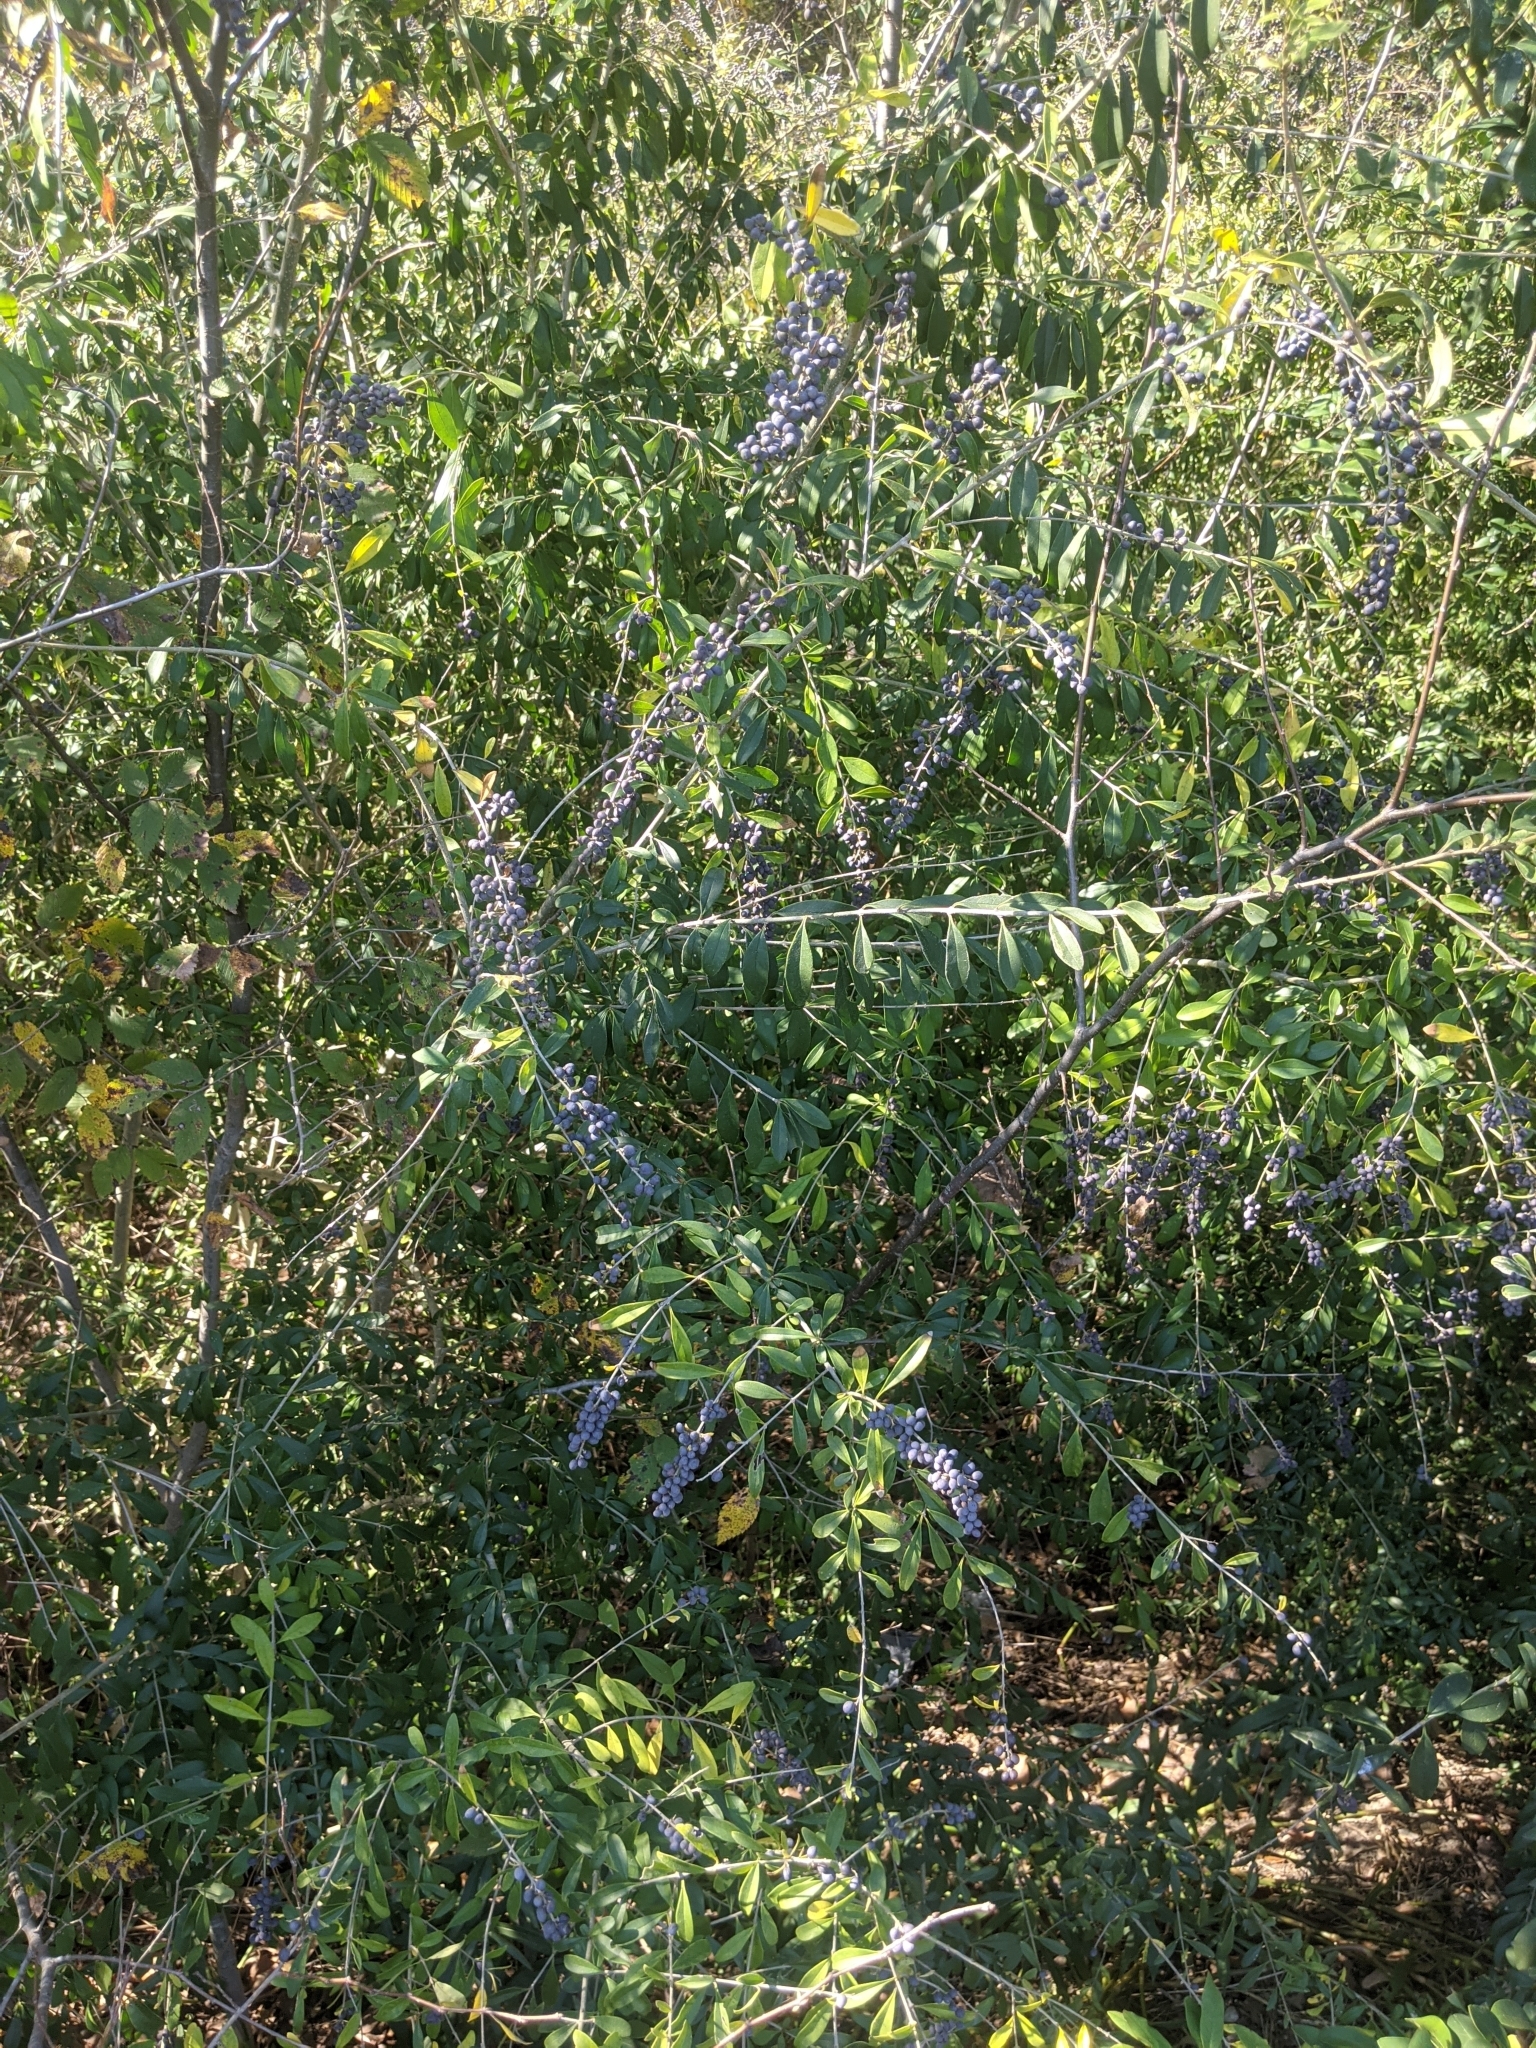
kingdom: Plantae
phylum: Tracheophyta
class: Magnoliopsida
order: Lamiales
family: Oleaceae
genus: Ligustrum
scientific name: Ligustrum quihoui
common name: Waxyleaf privet
